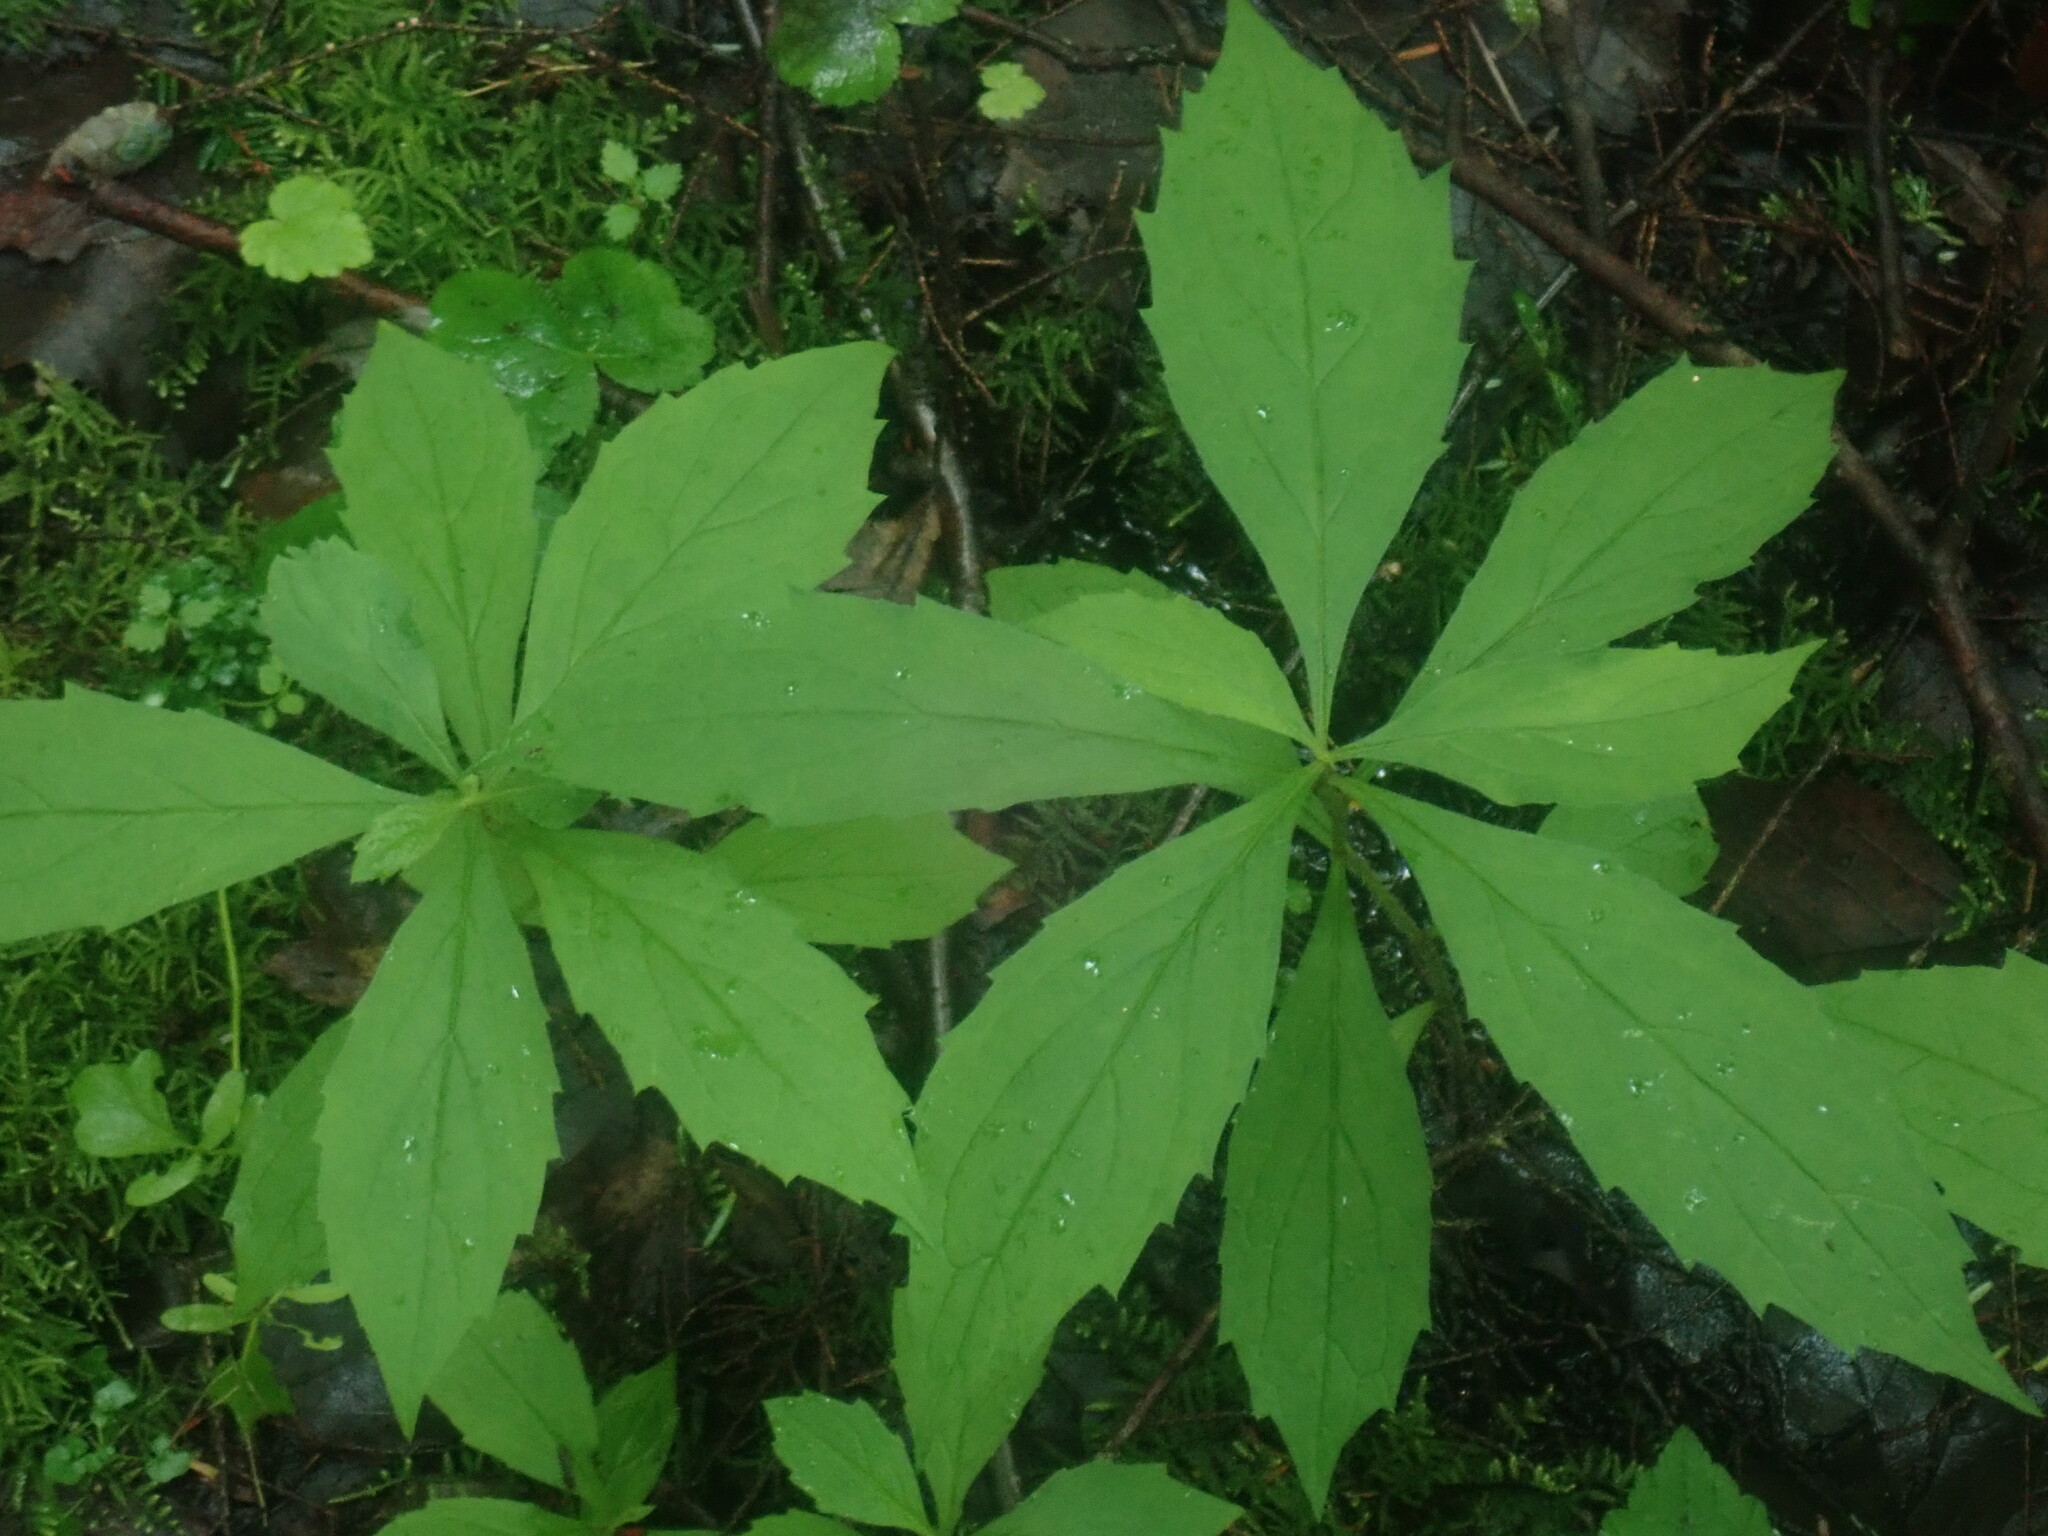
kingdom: Plantae
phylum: Tracheophyta
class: Magnoliopsida
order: Asterales
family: Asteraceae
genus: Oclemena
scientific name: Oclemena acuminata
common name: Mountain aster
